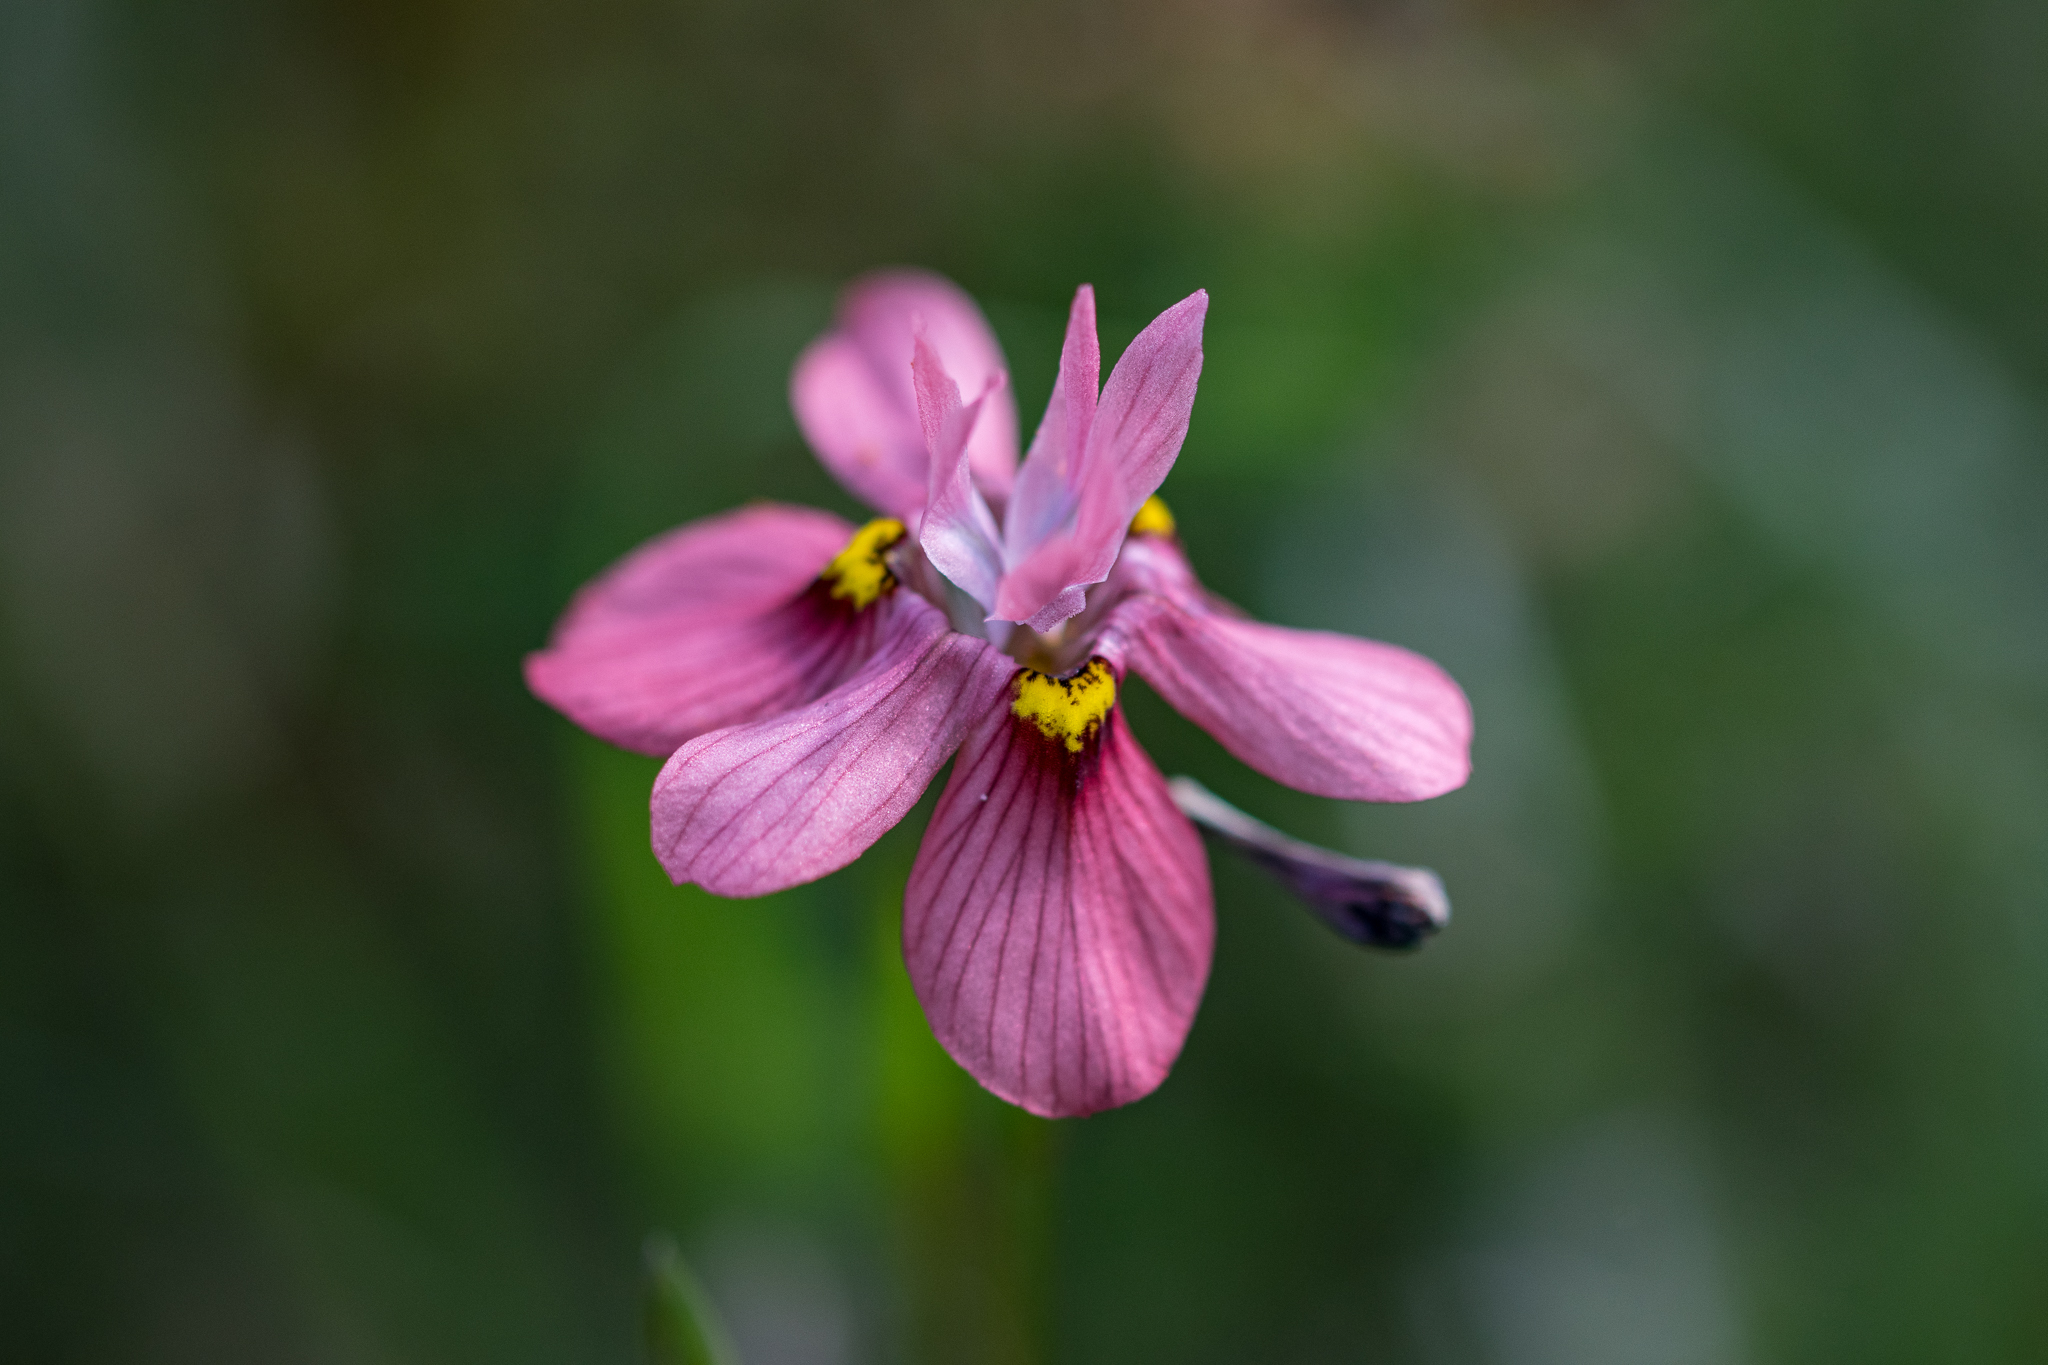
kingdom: Plantae
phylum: Tracheophyta
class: Liliopsida
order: Asparagales
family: Iridaceae
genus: Moraea
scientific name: Moraea gawleri
